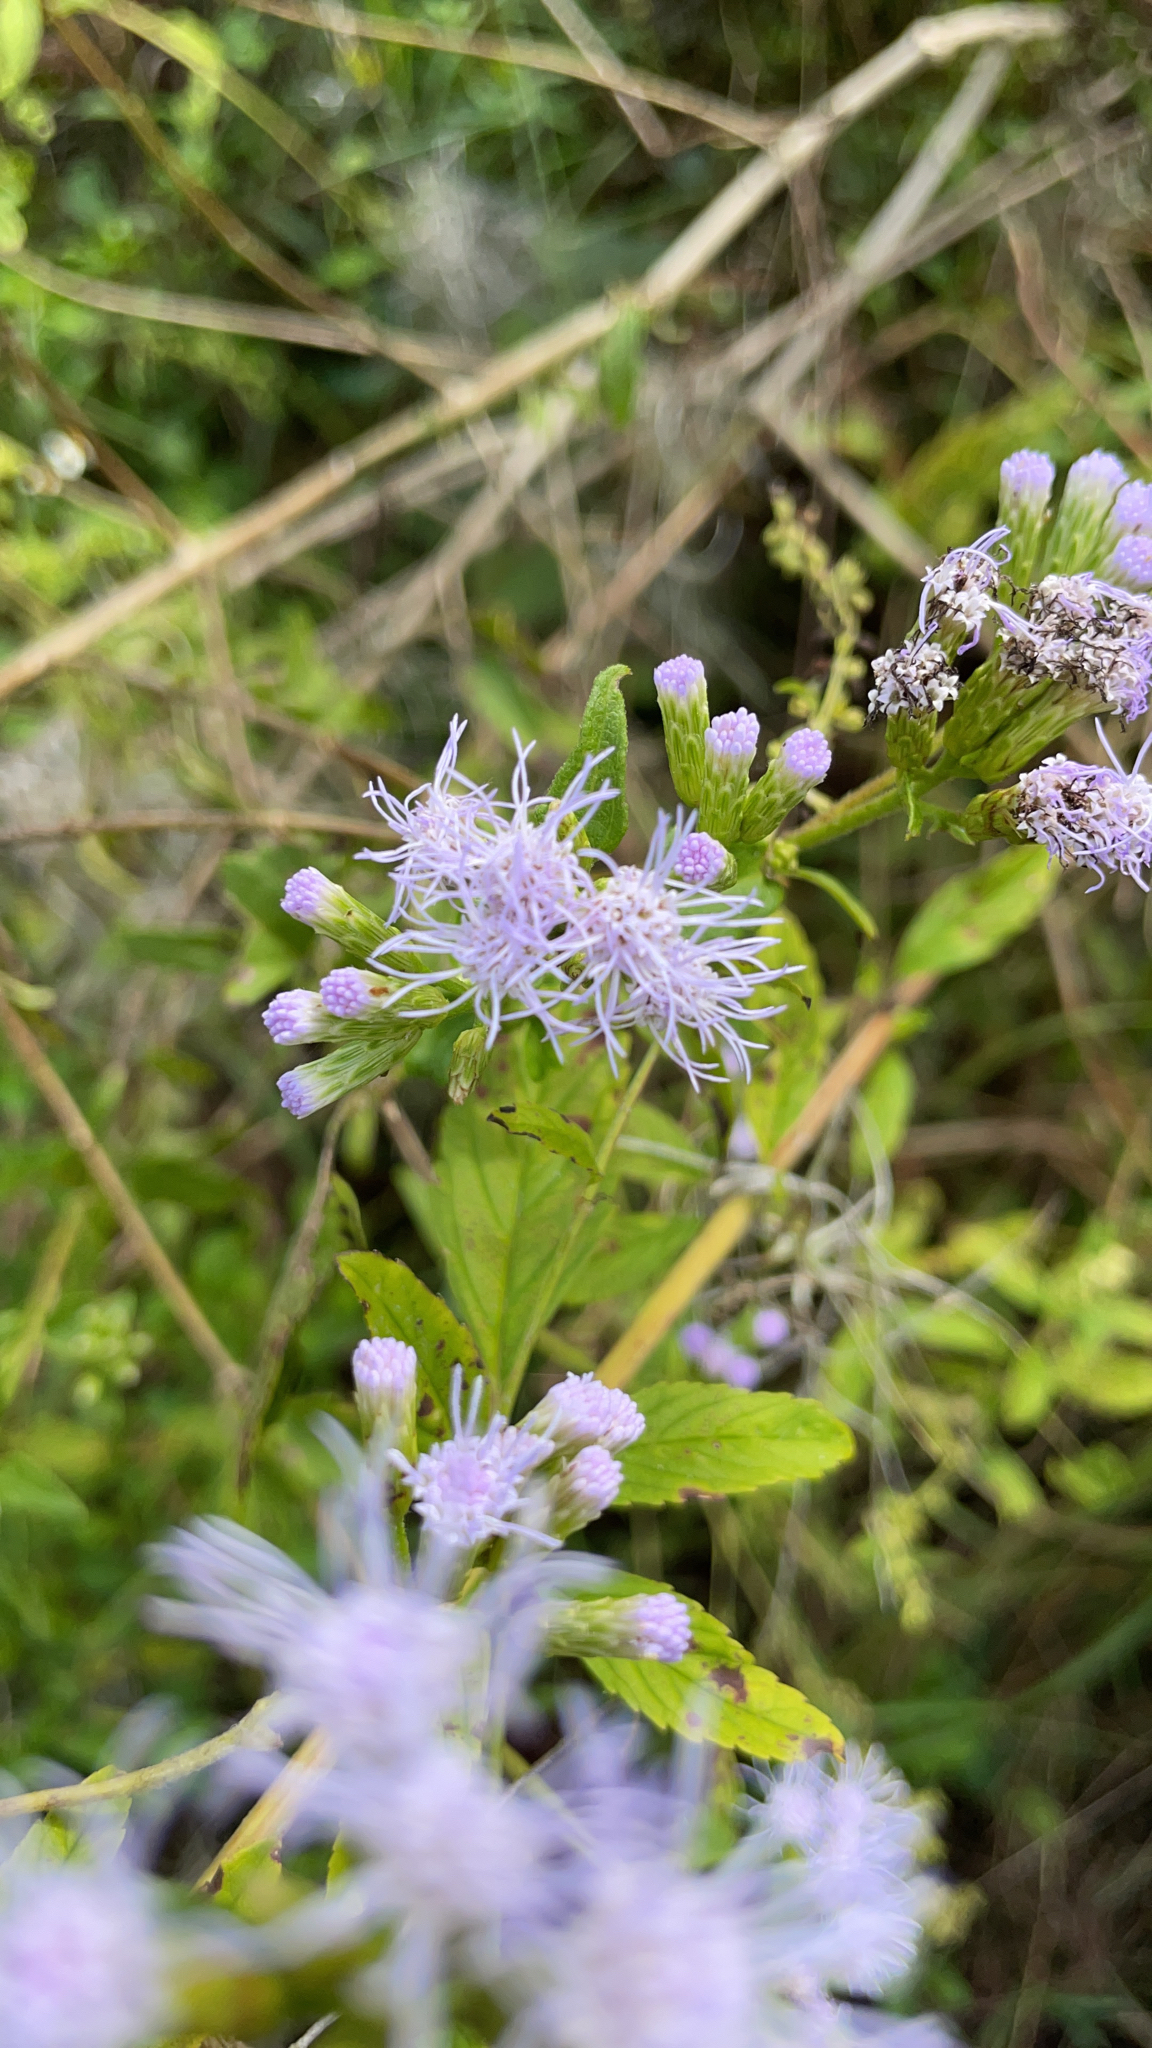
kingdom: Plantae
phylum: Tracheophyta
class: Magnoliopsida
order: Asterales
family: Asteraceae
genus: Chromolaena
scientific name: Chromolaena odorata
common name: Siamweed
